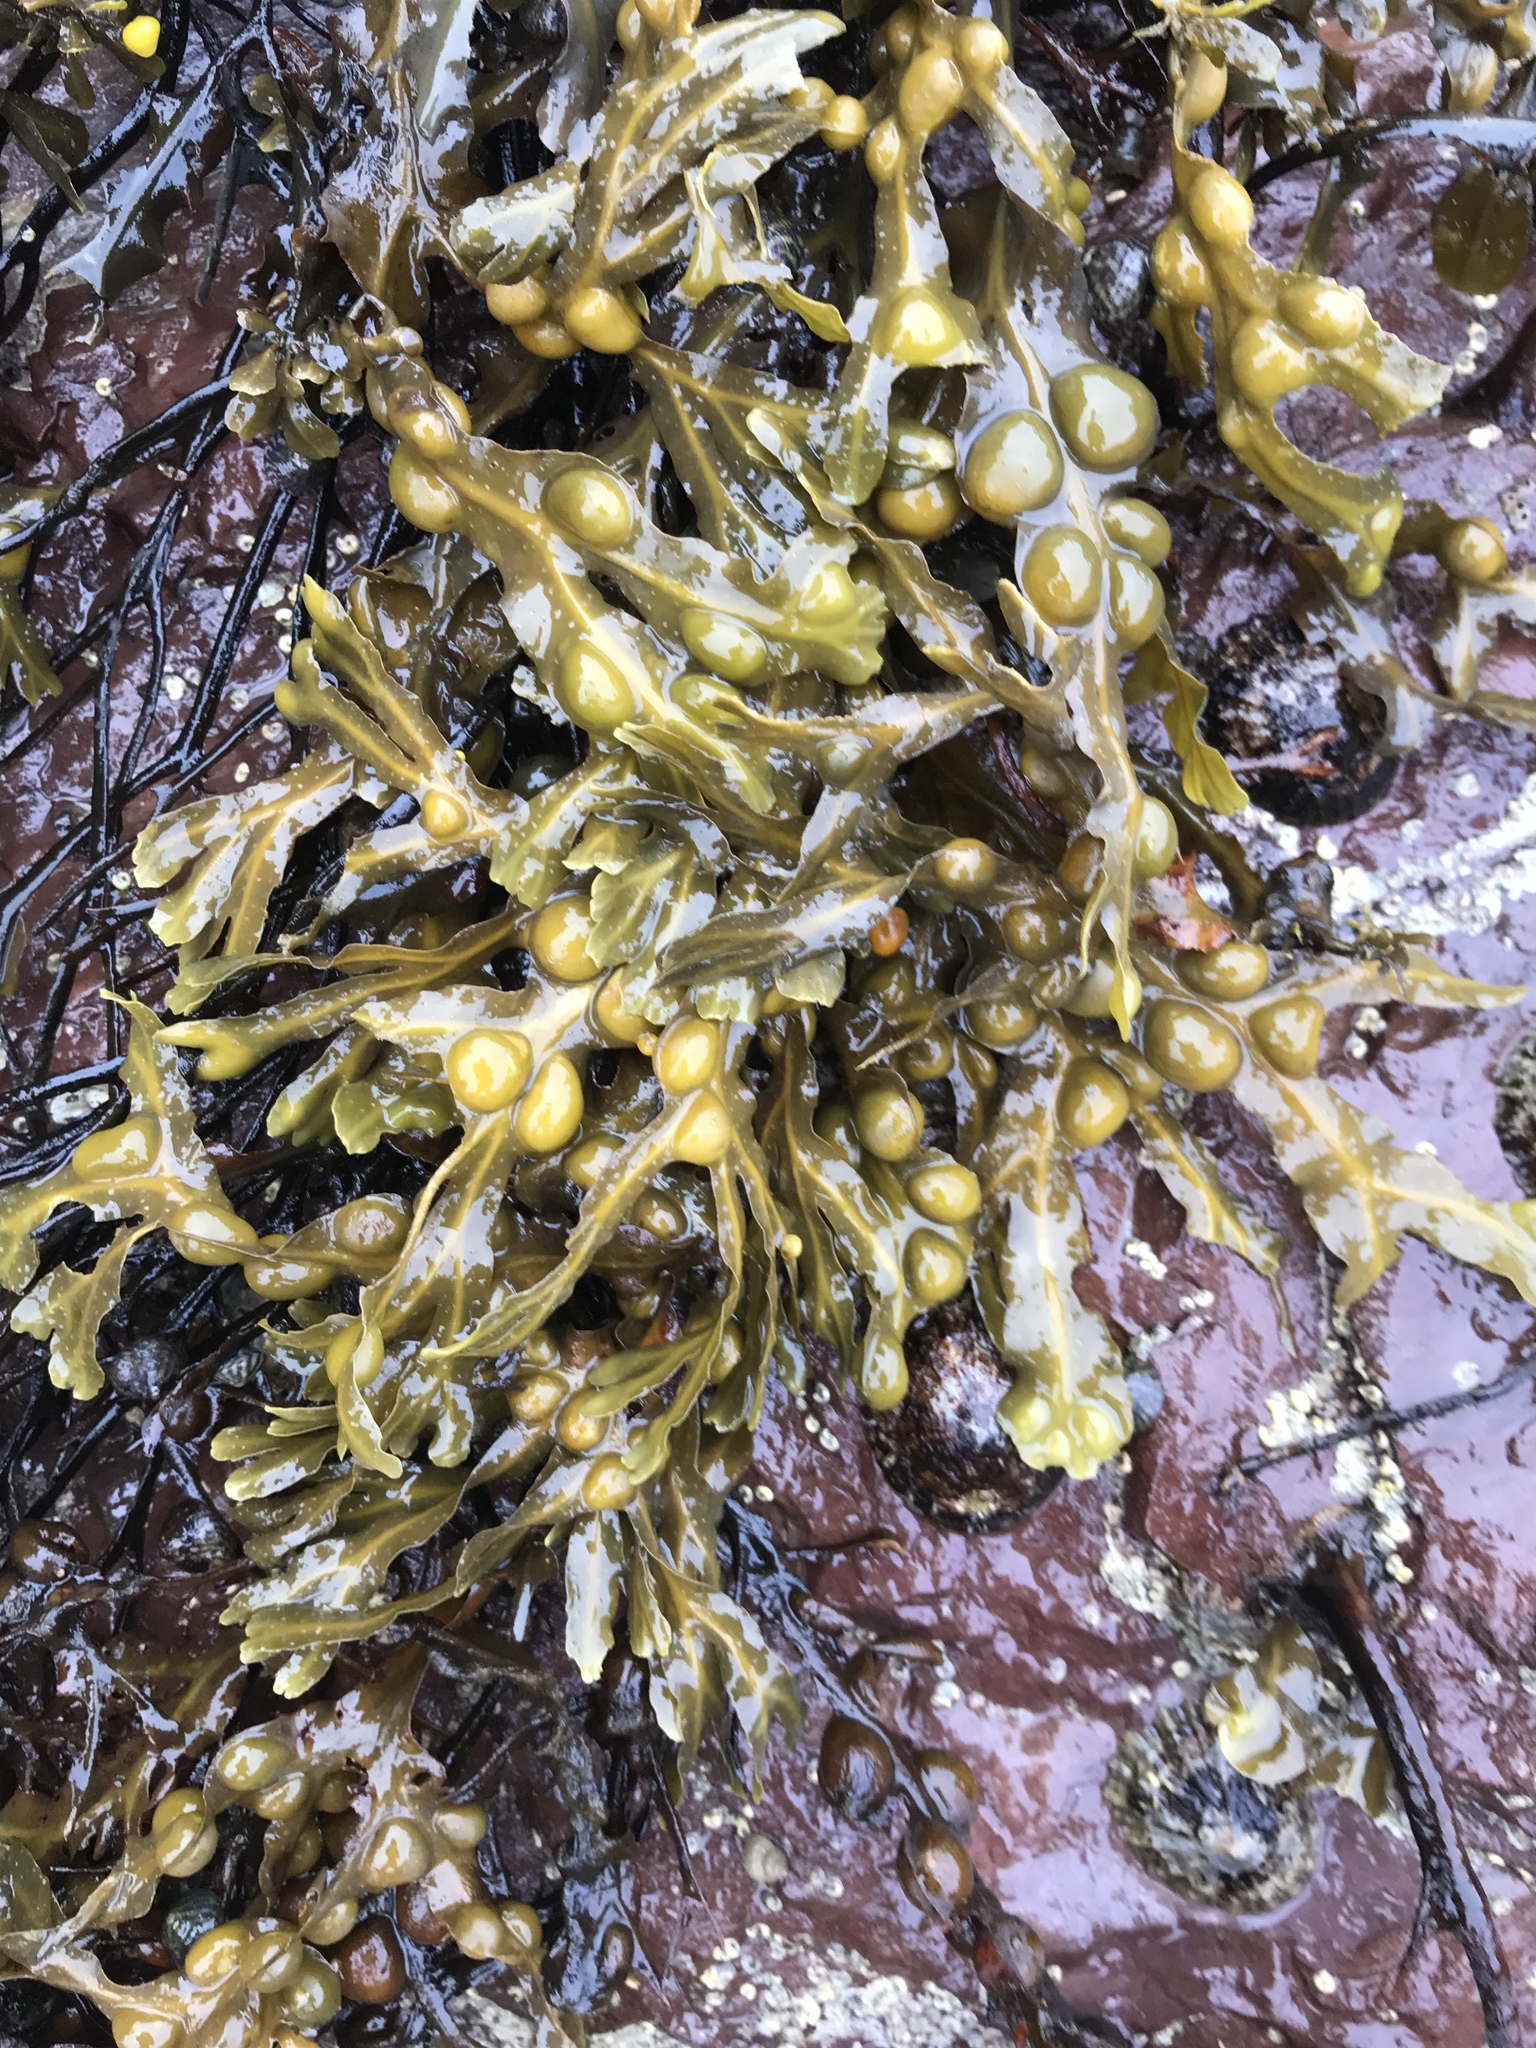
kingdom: Chromista
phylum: Ochrophyta
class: Phaeophyceae
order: Fucales
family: Fucaceae
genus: Fucus
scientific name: Fucus vesiculosus
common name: Bladder wrack
